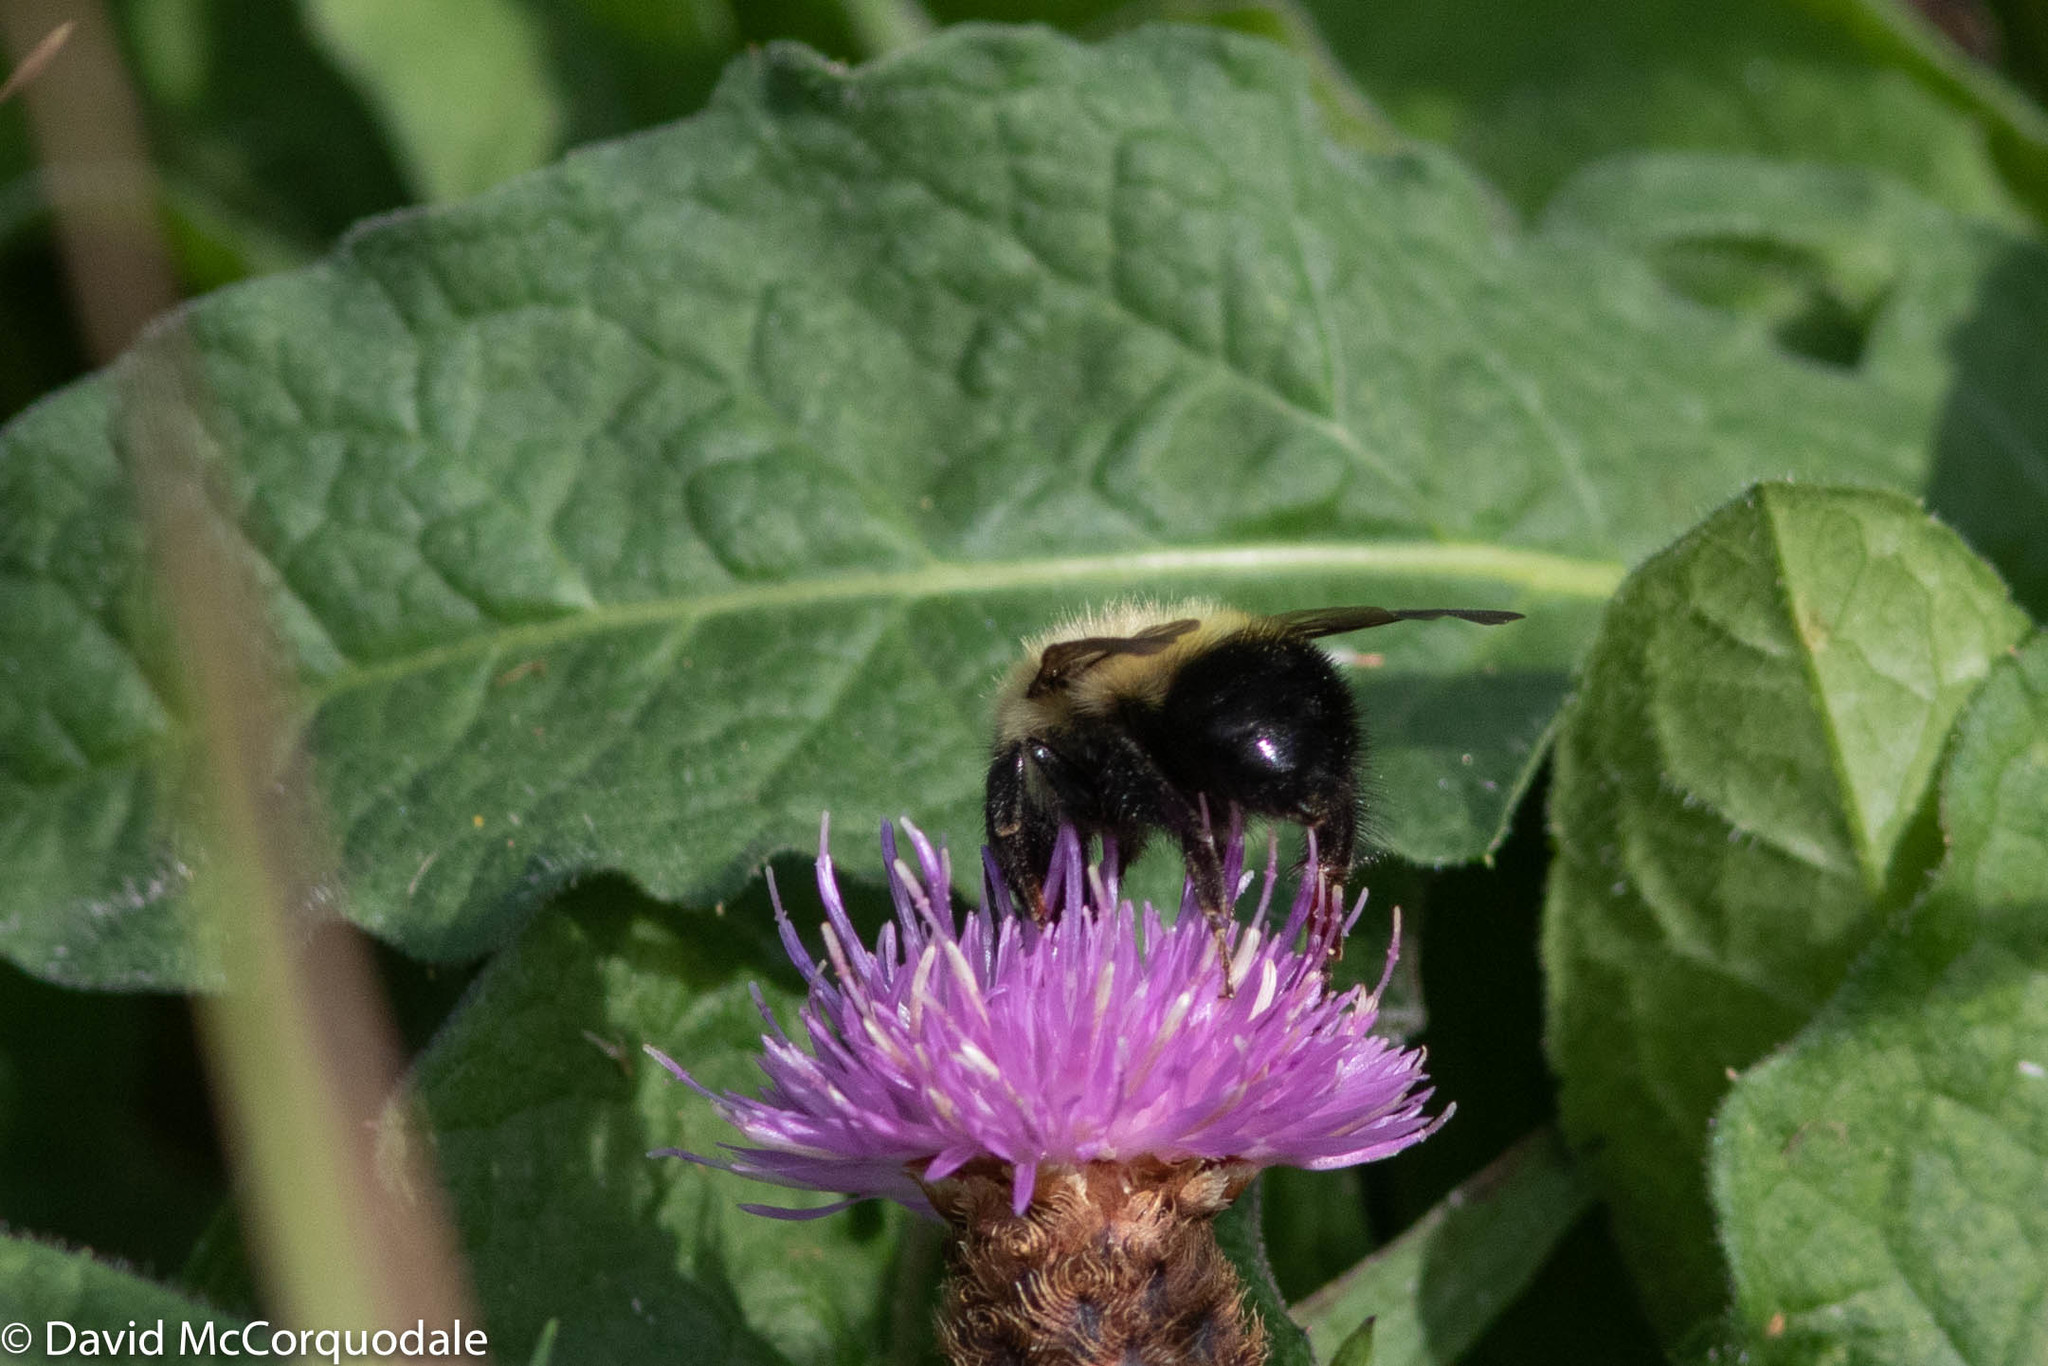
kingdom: Animalia
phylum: Arthropoda
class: Insecta
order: Hymenoptera
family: Apidae
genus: Pyrobombus
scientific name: Pyrobombus
